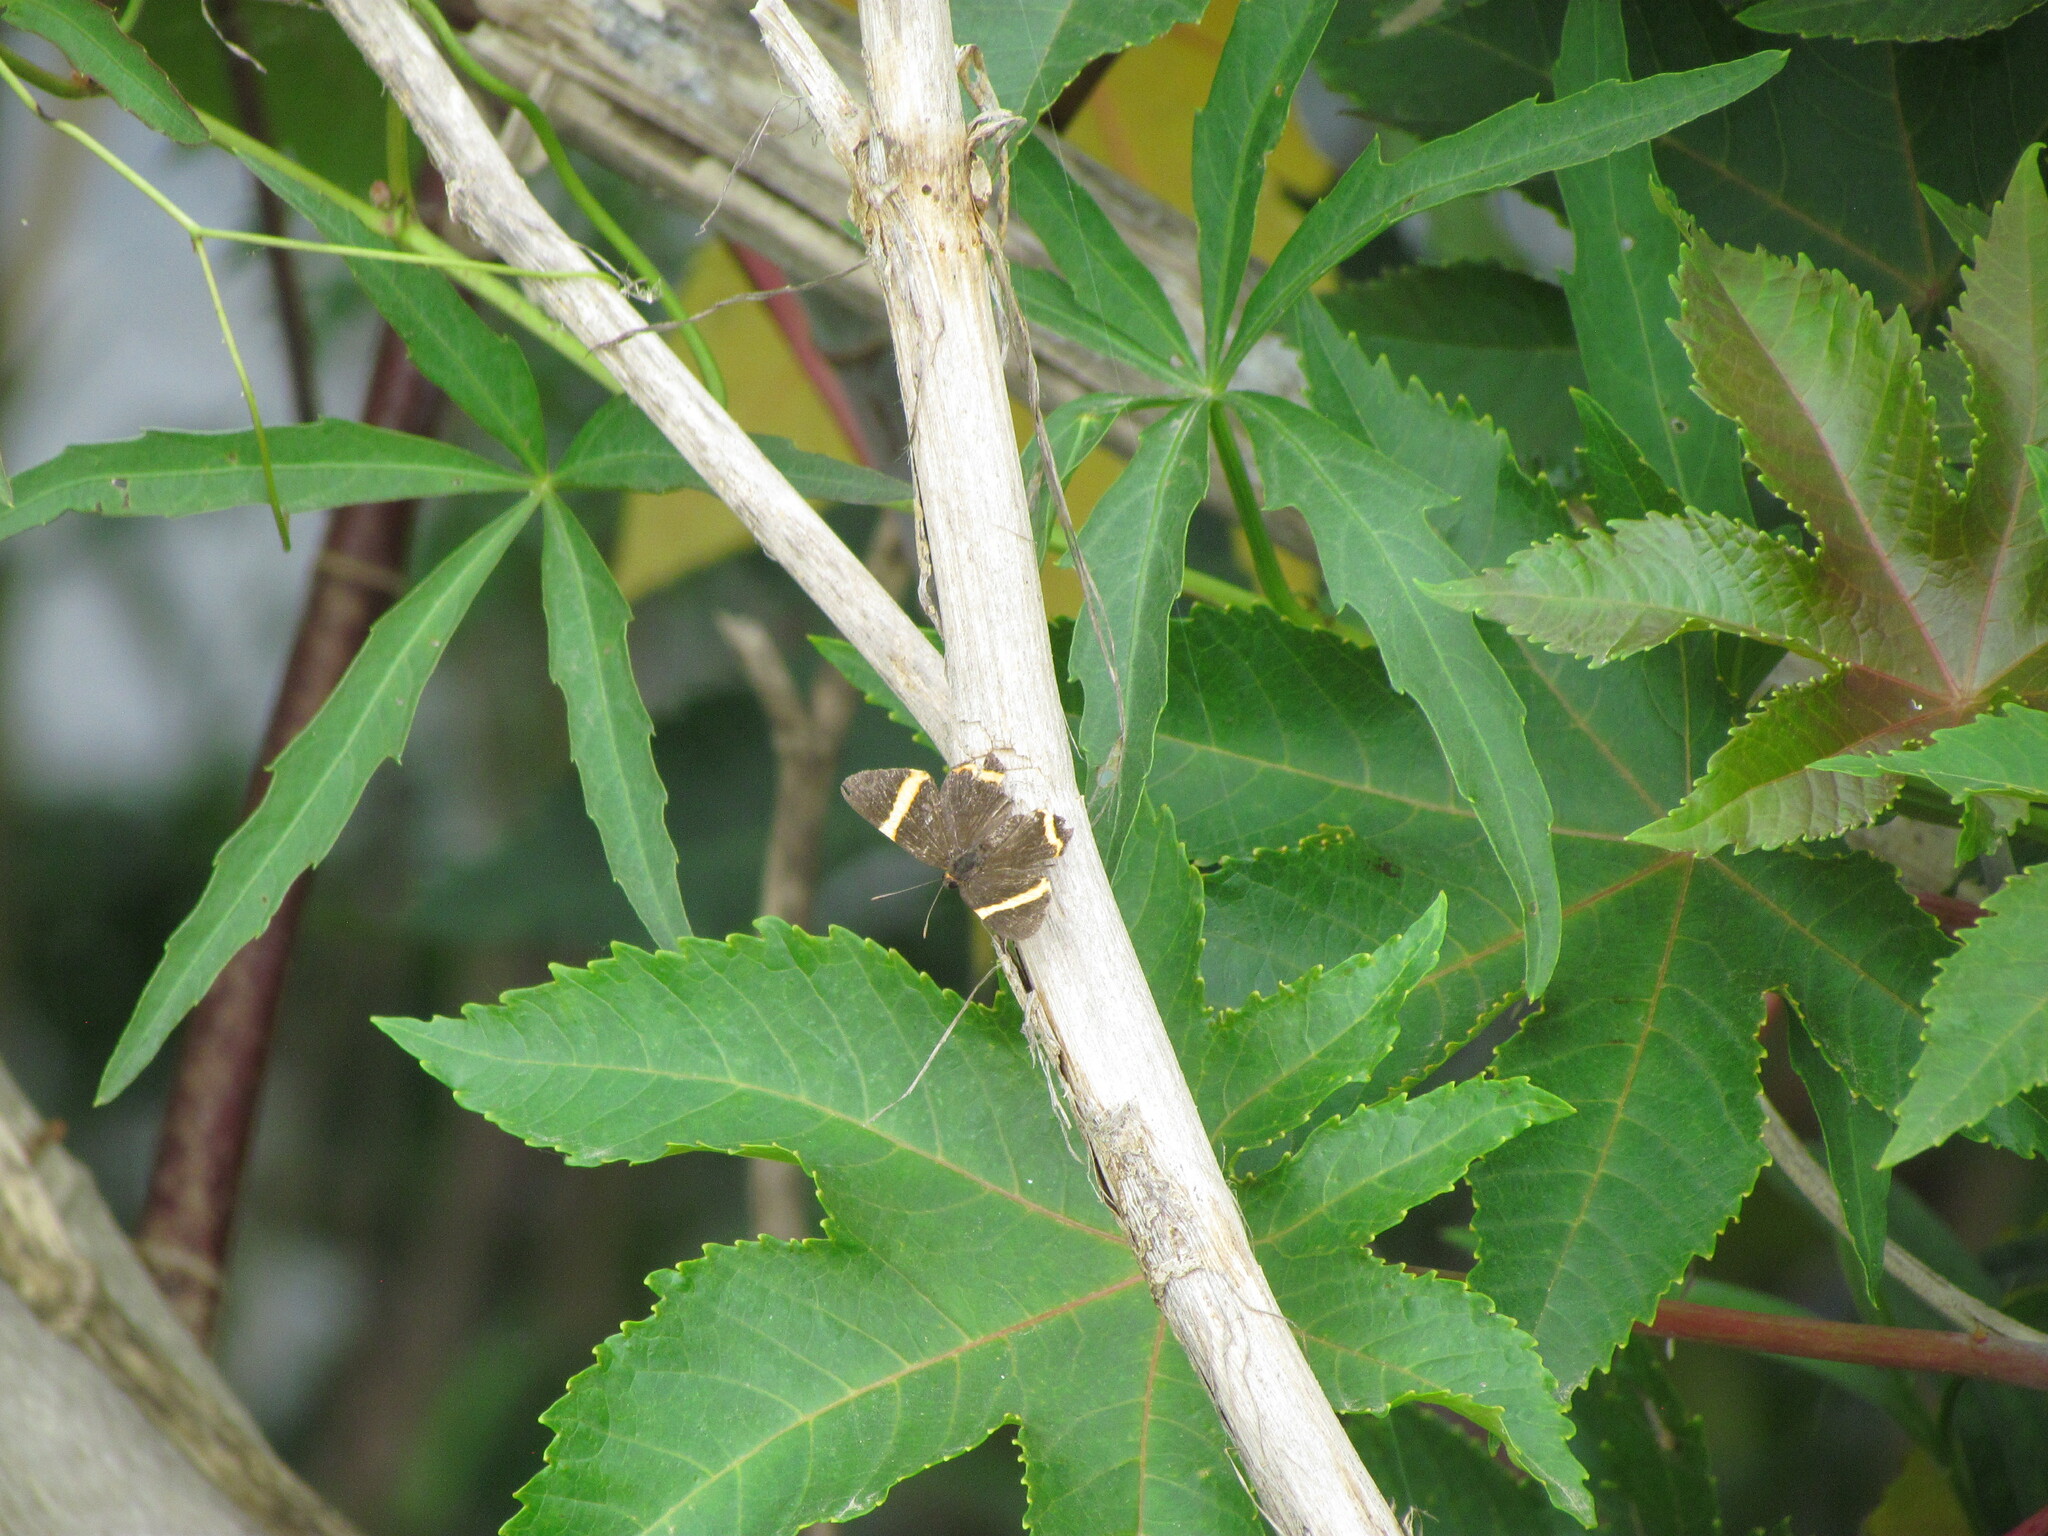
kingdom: Animalia
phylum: Arthropoda
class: Insecta
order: Lepidoptera
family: Riodinidae
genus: Riodina
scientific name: Riodina lysippoides
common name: Little dancer metalmark
